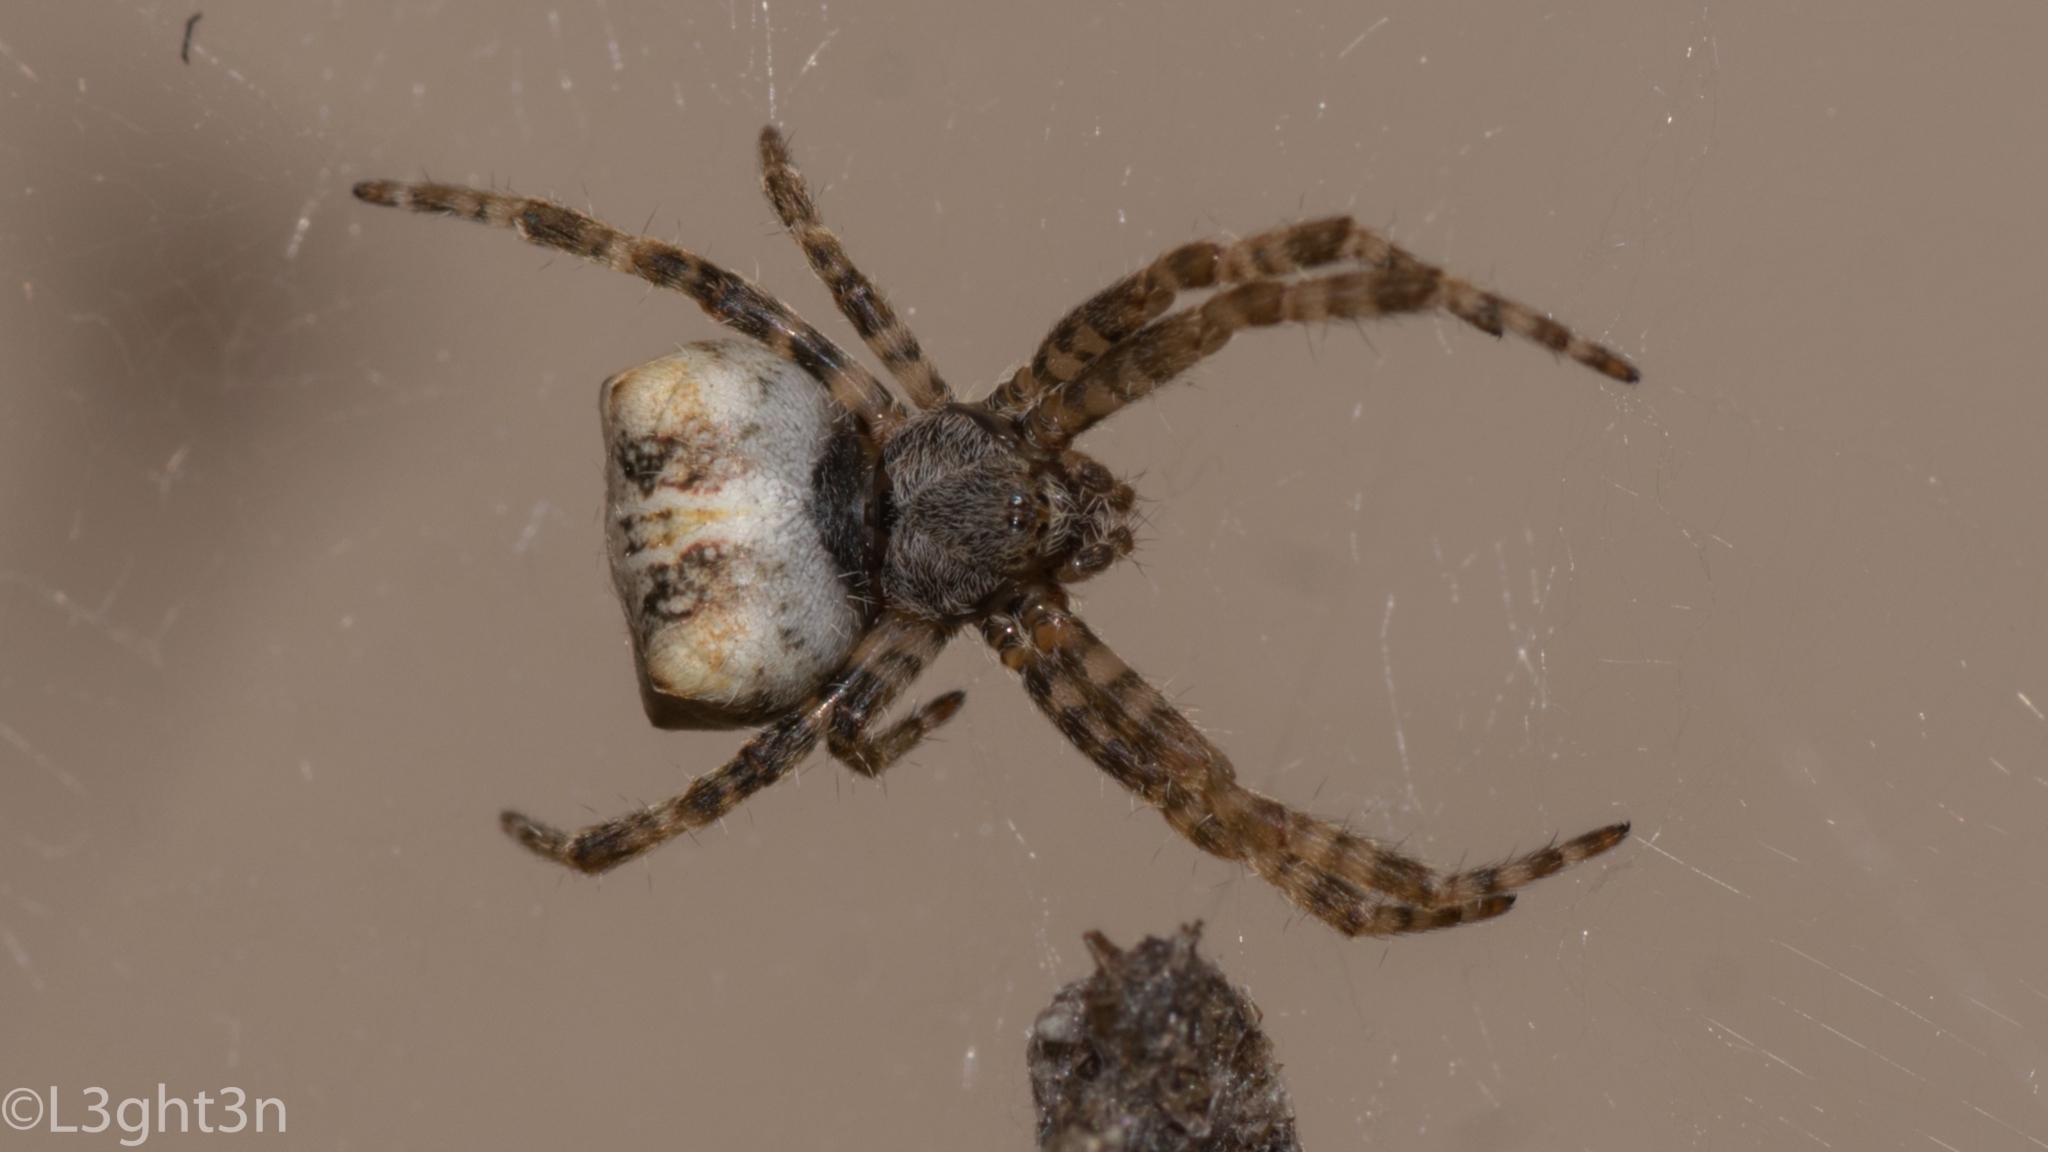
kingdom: Animalia
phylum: Arthropoda
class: Arachnida
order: Araneae
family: Araneidae
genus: Cyrtophora
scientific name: Cyrtophora citricola
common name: Orb weavers
